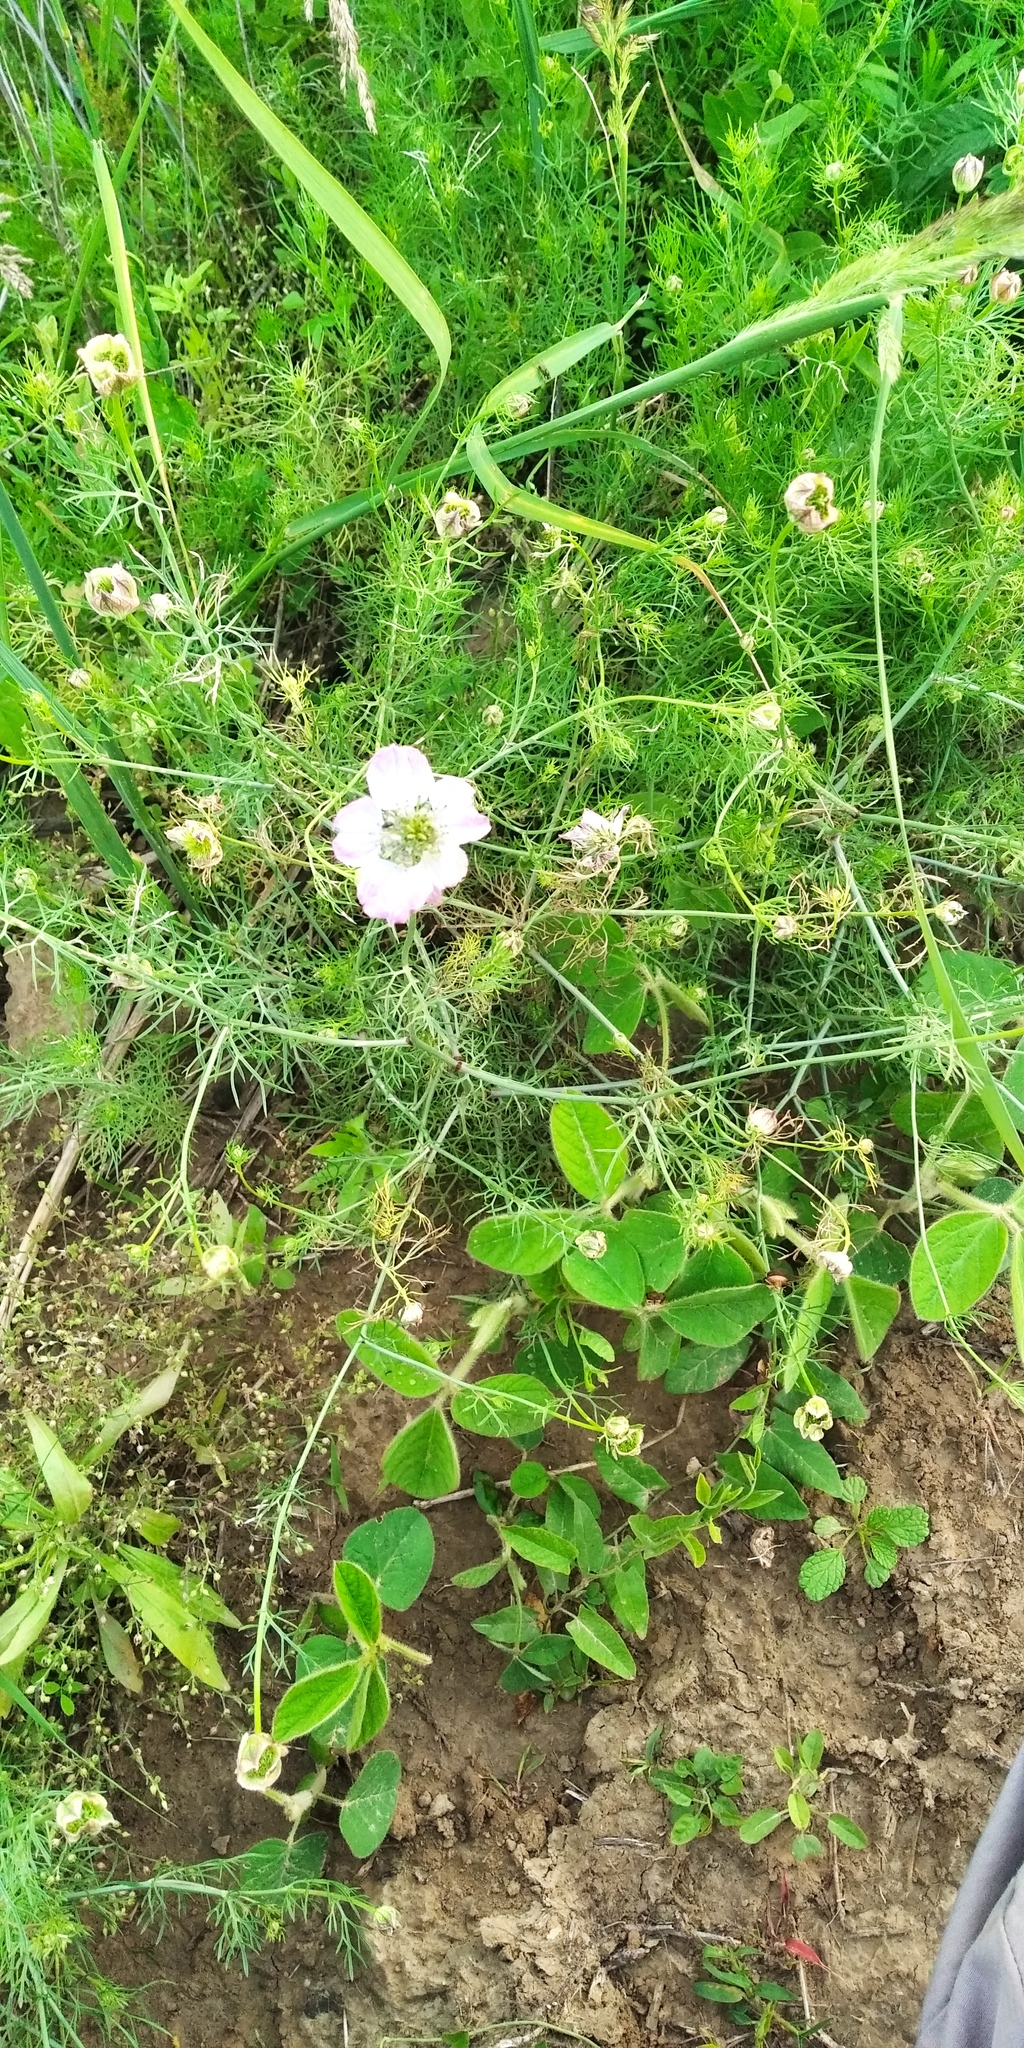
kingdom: Plantae
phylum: Tracheophyta
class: Magnoliopsida
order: Ranunculales
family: Ranunculaceae
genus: Nigella
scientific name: Nigella arvensis
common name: Wild fennel-flower
